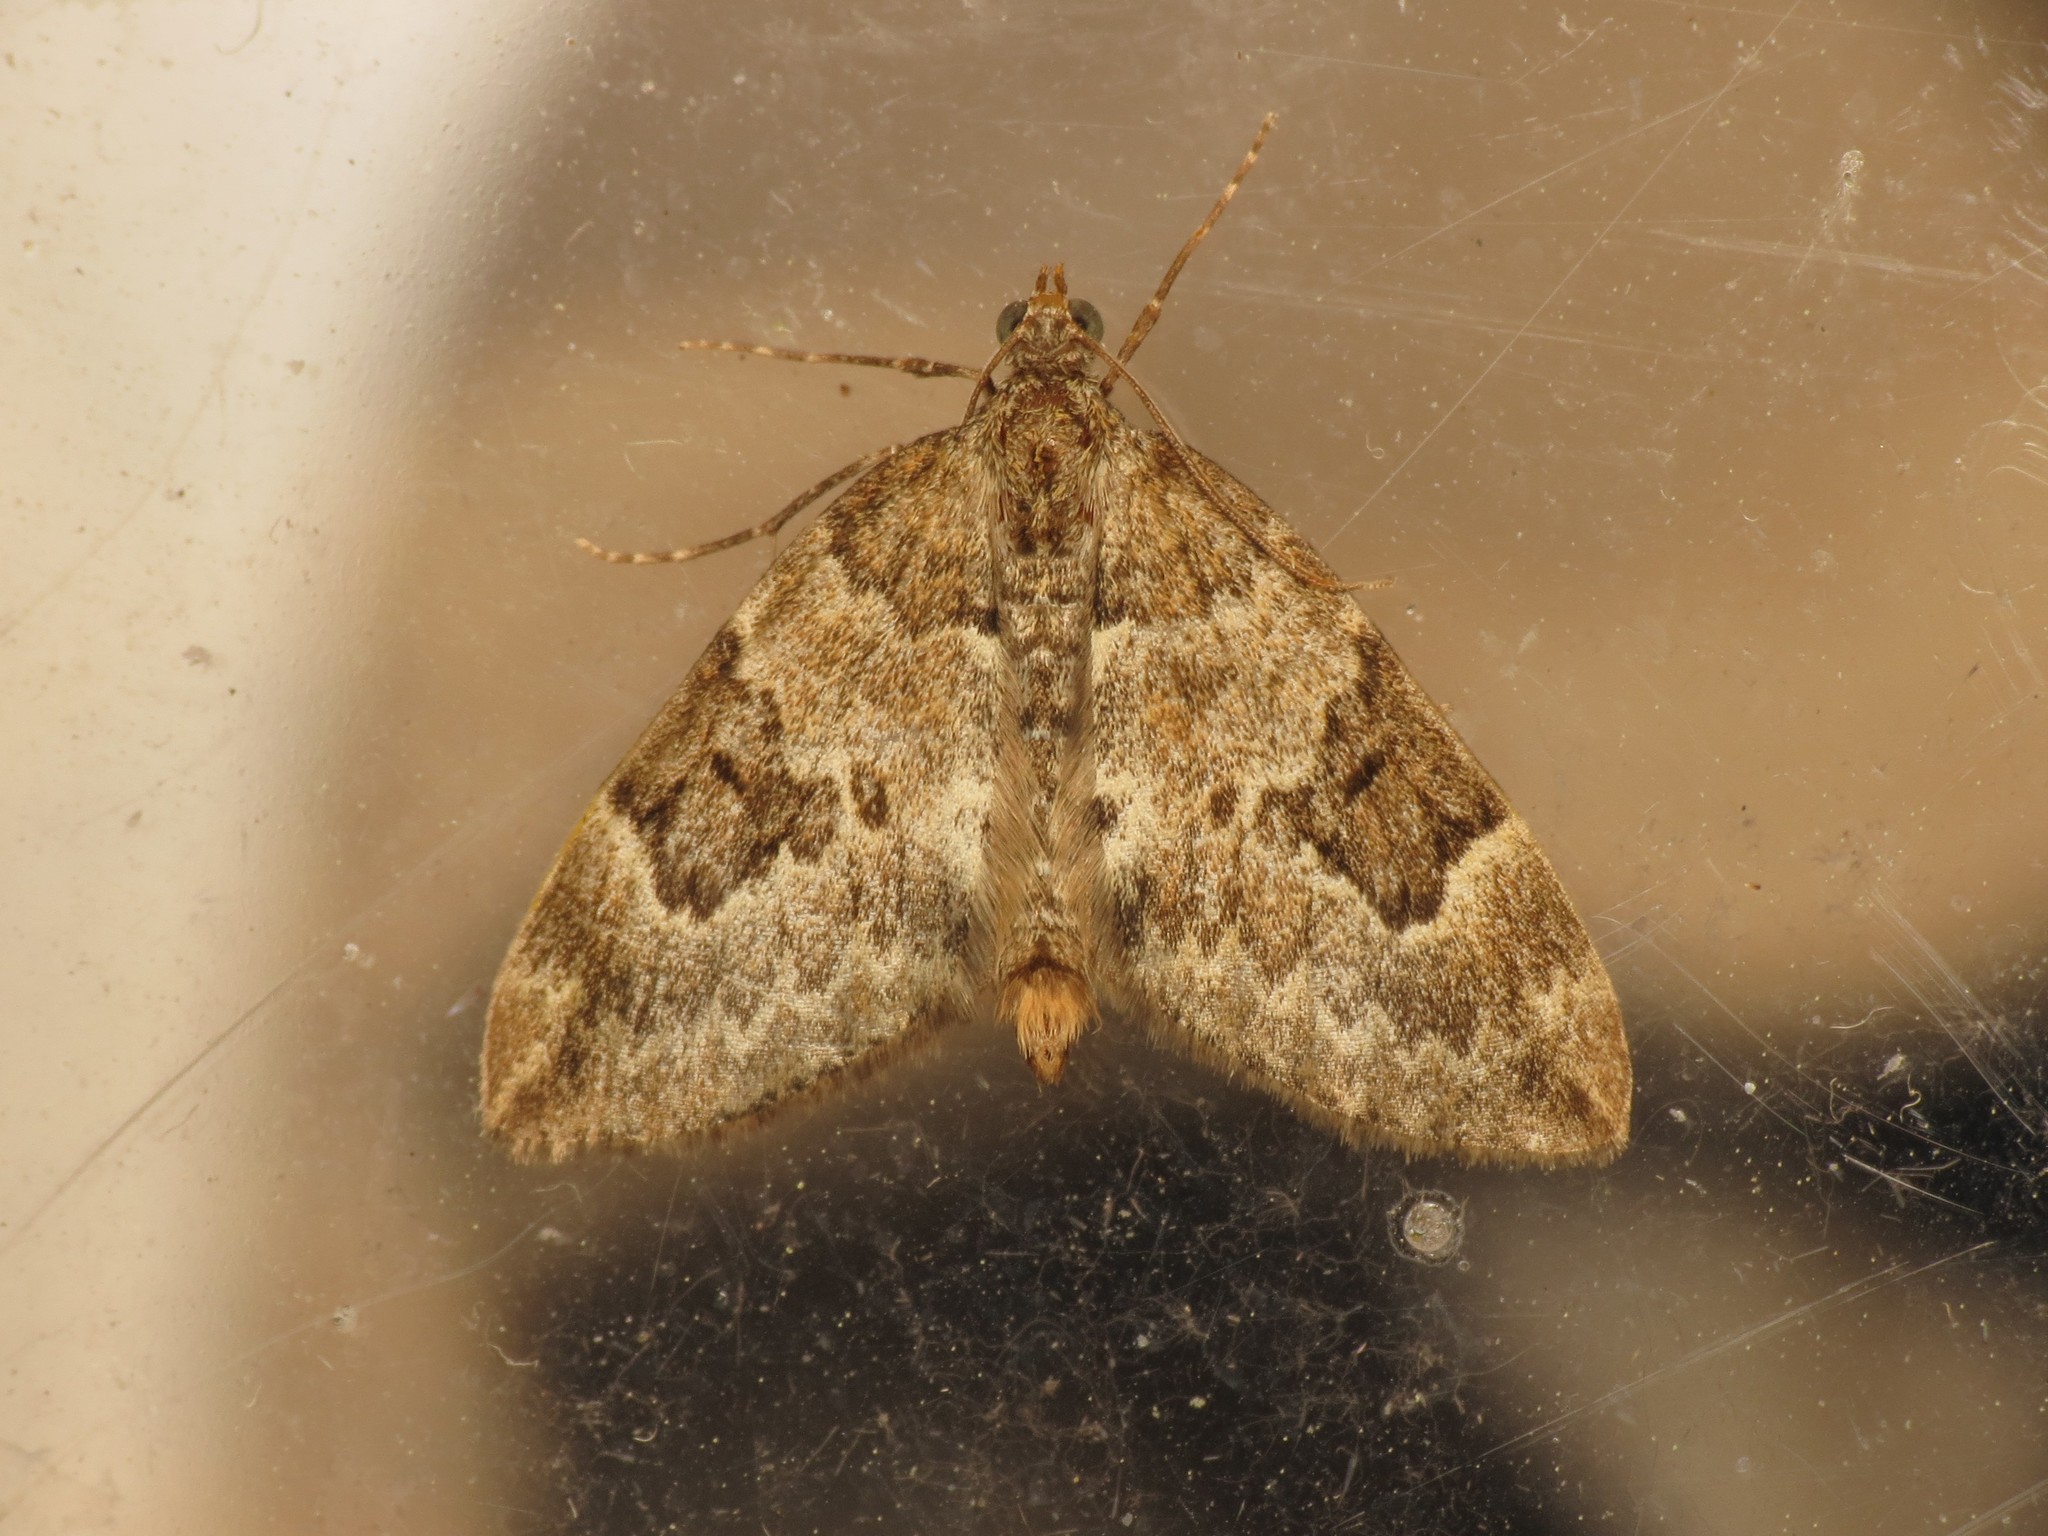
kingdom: Animalia
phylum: Arthropoda
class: Insecta
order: Lepidoptera
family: Geometridae
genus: Thera
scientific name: Thera variata
